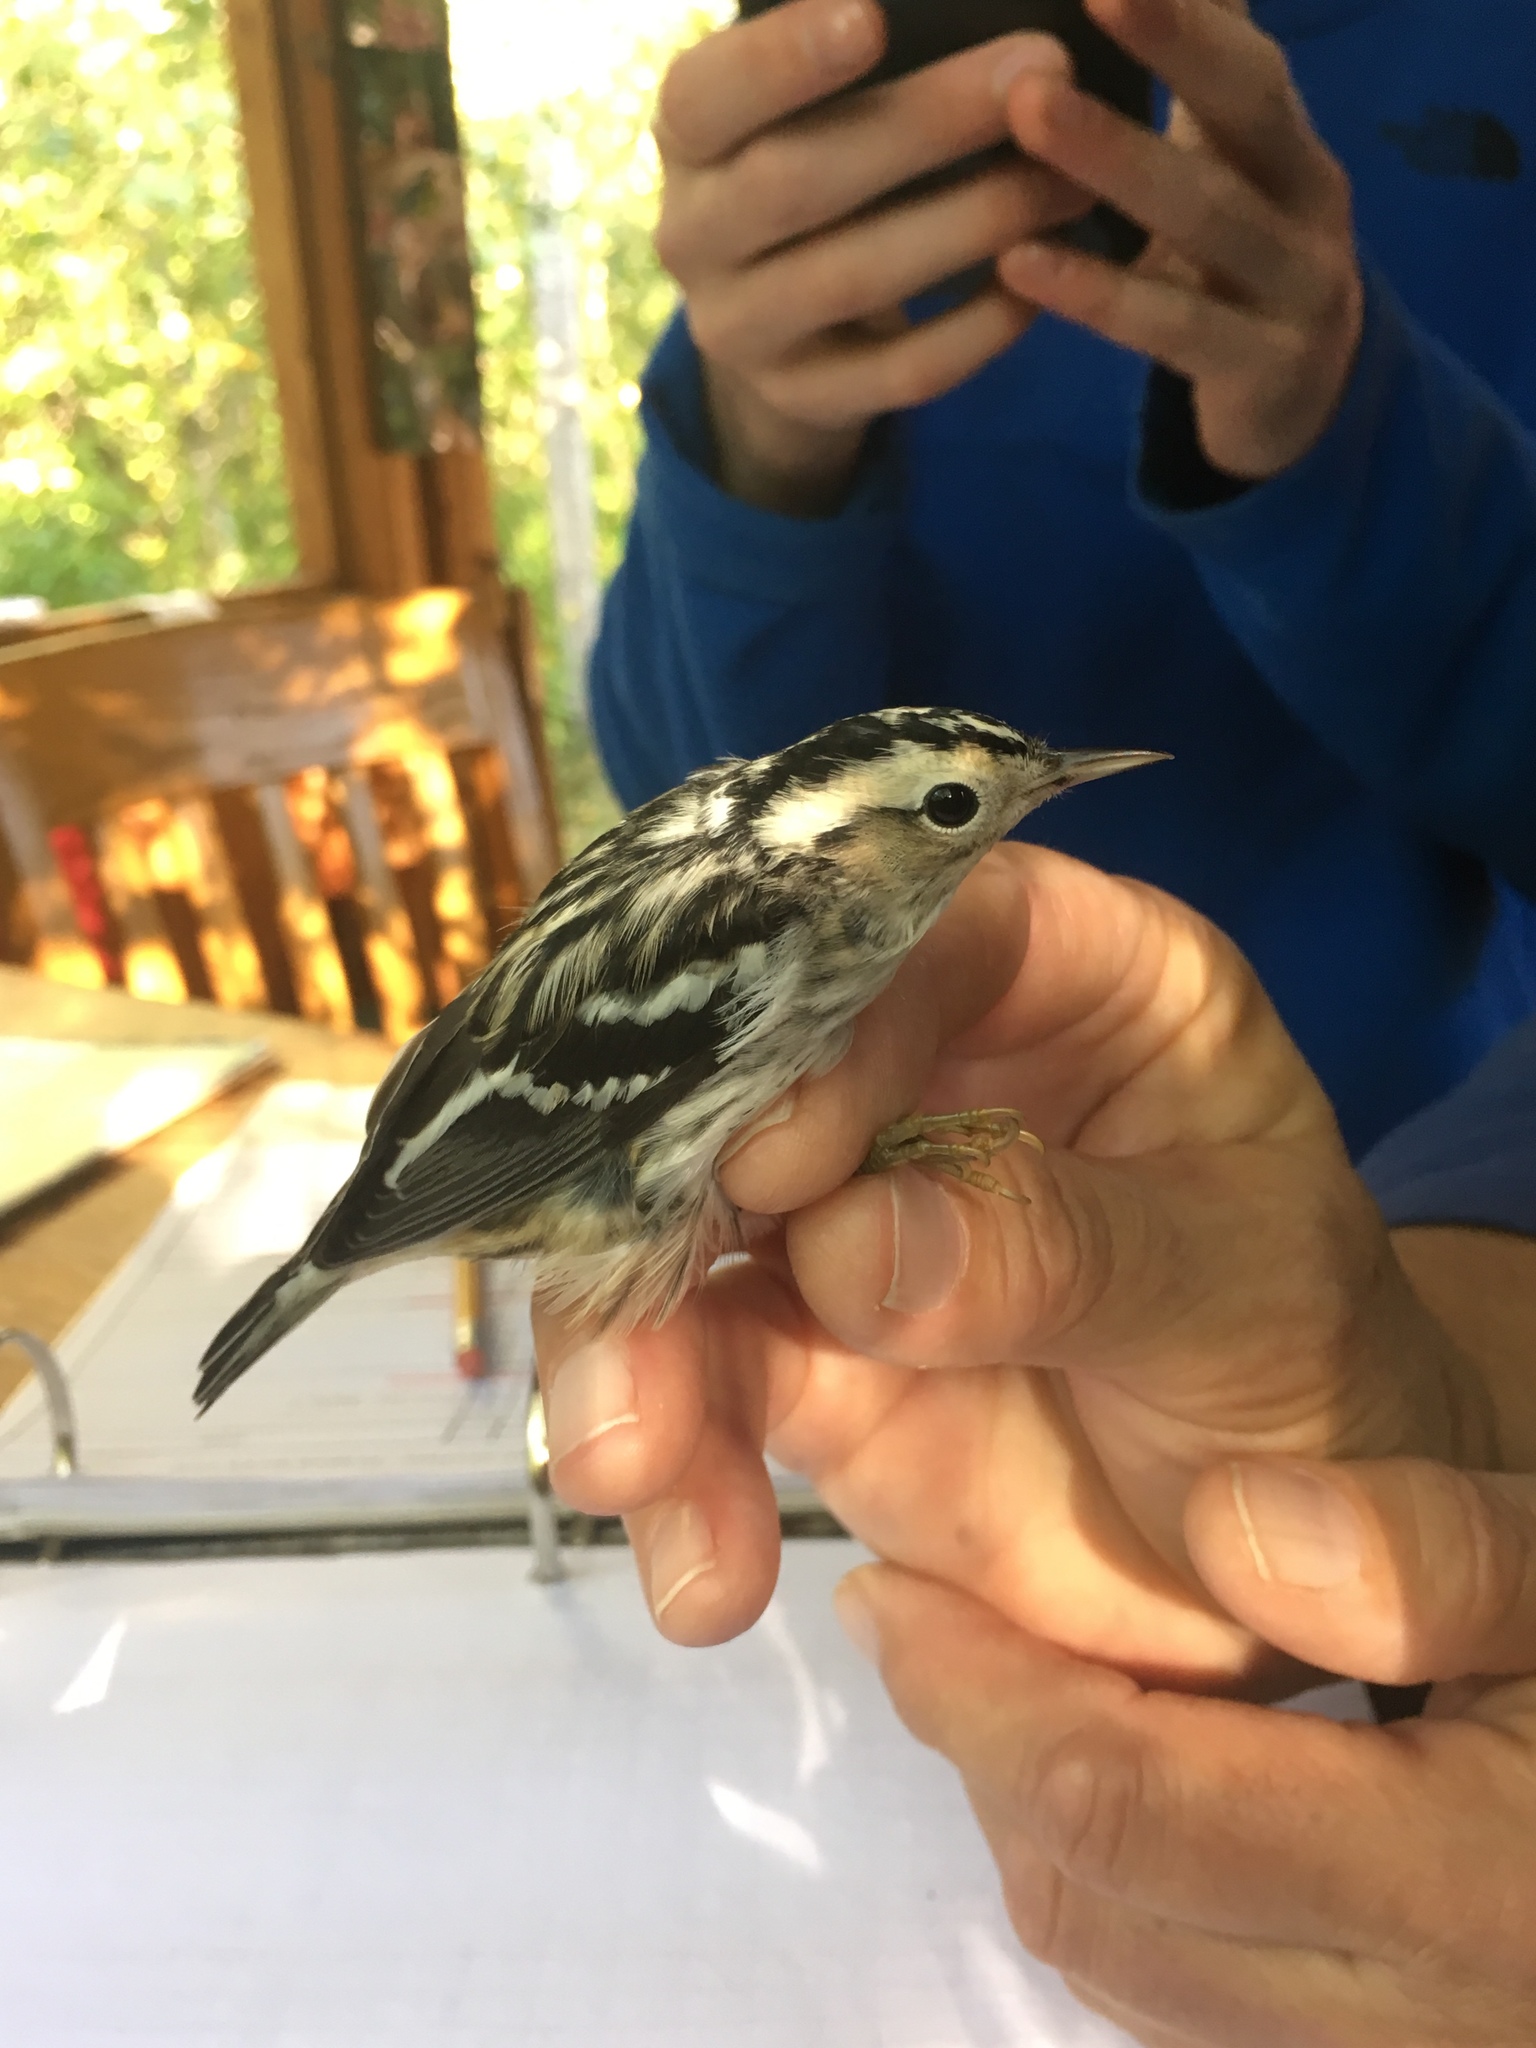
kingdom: Animalia
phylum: Chordata
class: Aves
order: Passeriformes
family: Parulidae
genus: Mniotilta
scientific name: Mniotilta varia
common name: Black-and-white warbler
